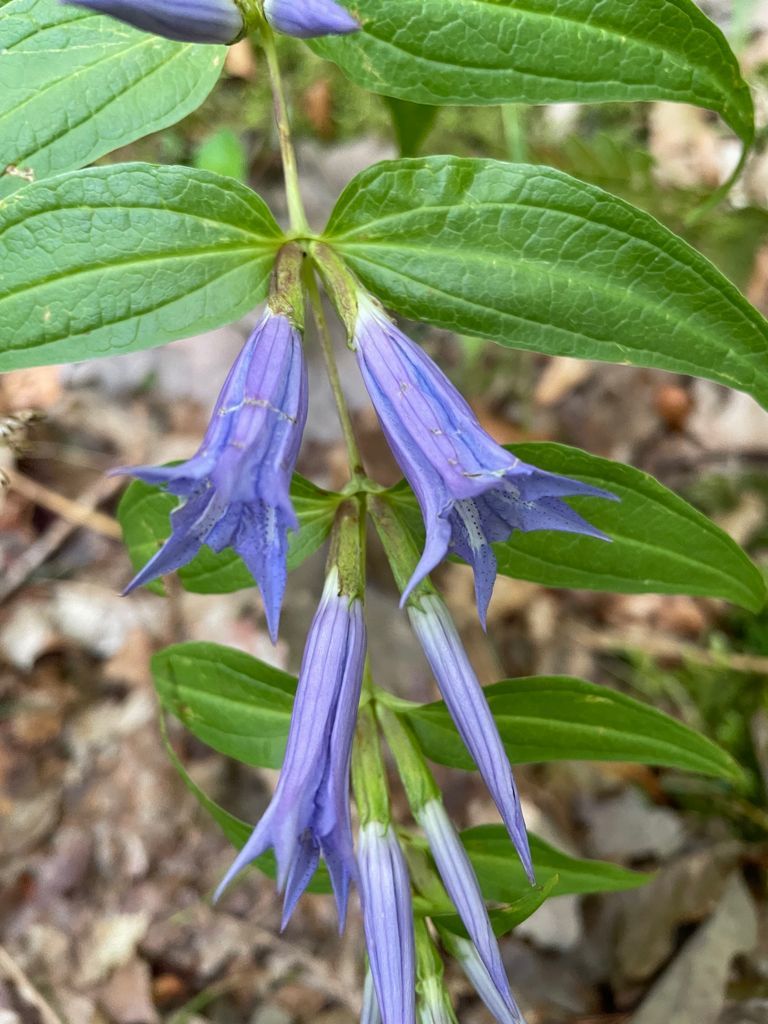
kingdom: Plantae
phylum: Tracheophyta
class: Magnoliopsida
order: Gentianales
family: Gentianaceae
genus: Gentiana
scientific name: Gentiana asclepiadea
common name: Willow gentian
